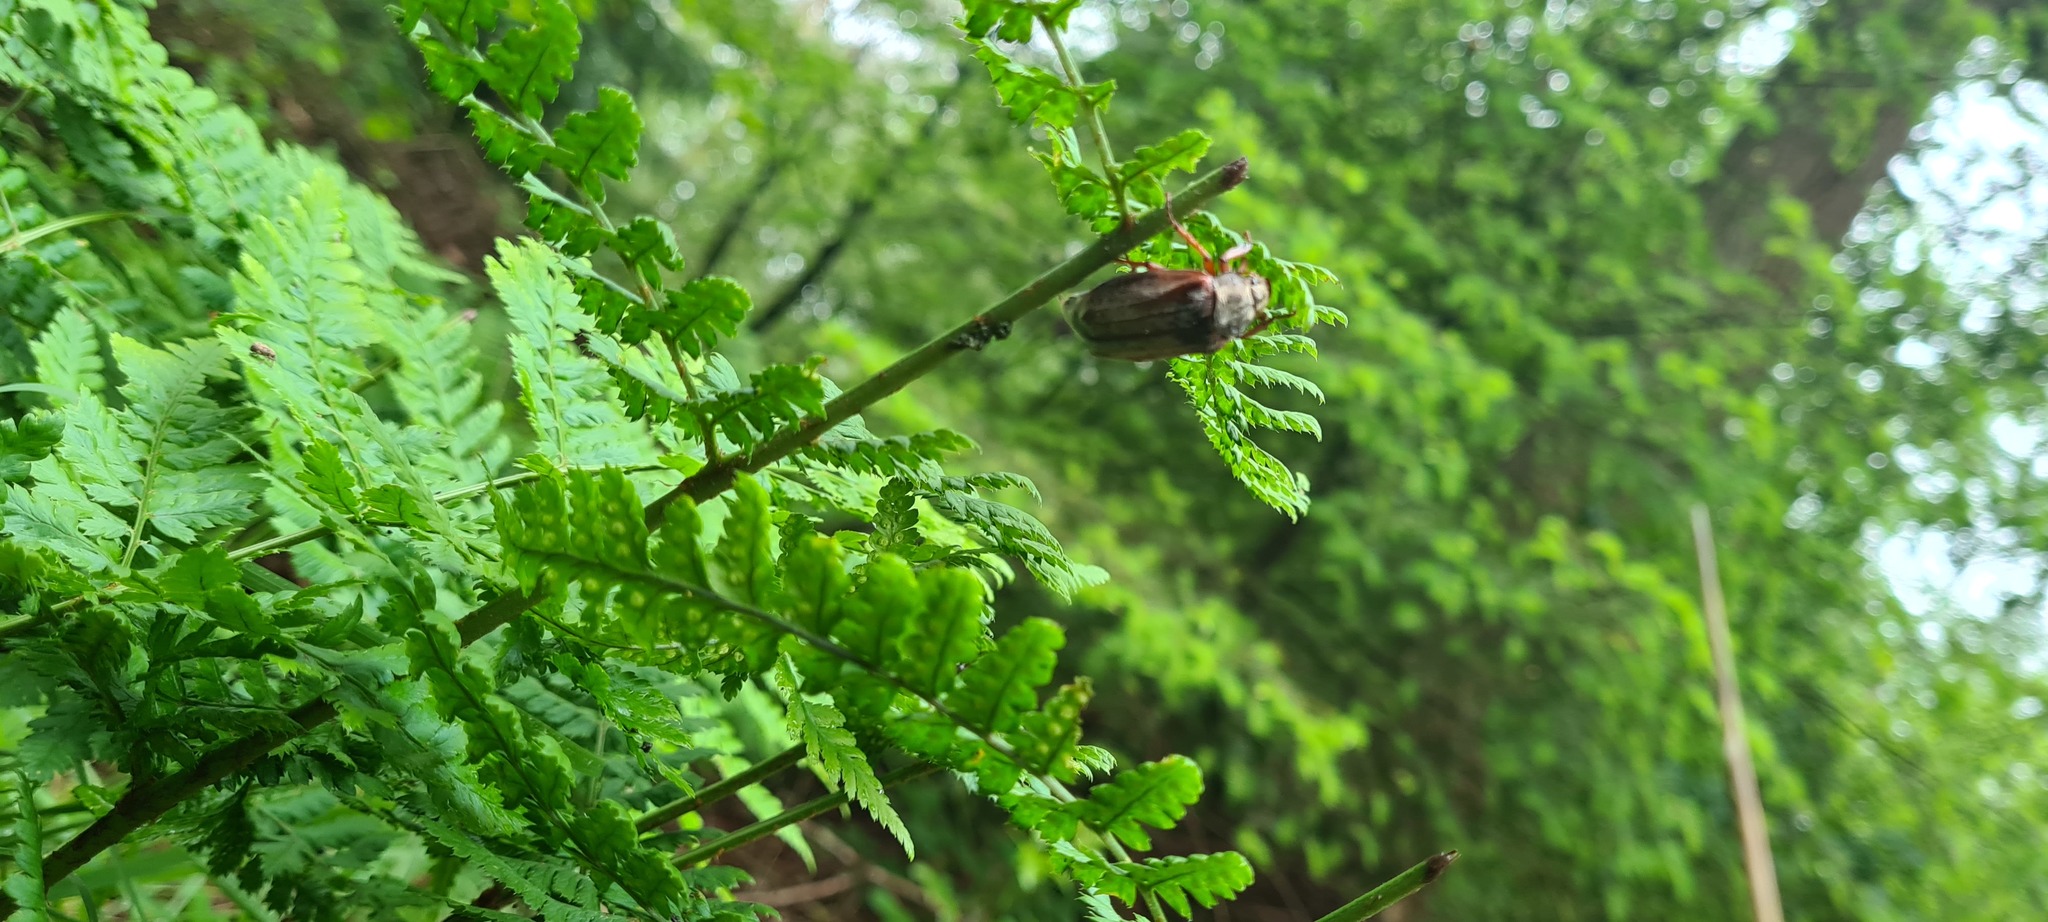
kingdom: Animalia
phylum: Arthropoda
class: Insecta
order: Coleoptera
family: Scarabaeidae
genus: Melolontha
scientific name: Melolontha melolontha
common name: Cockchafer maybeetle
